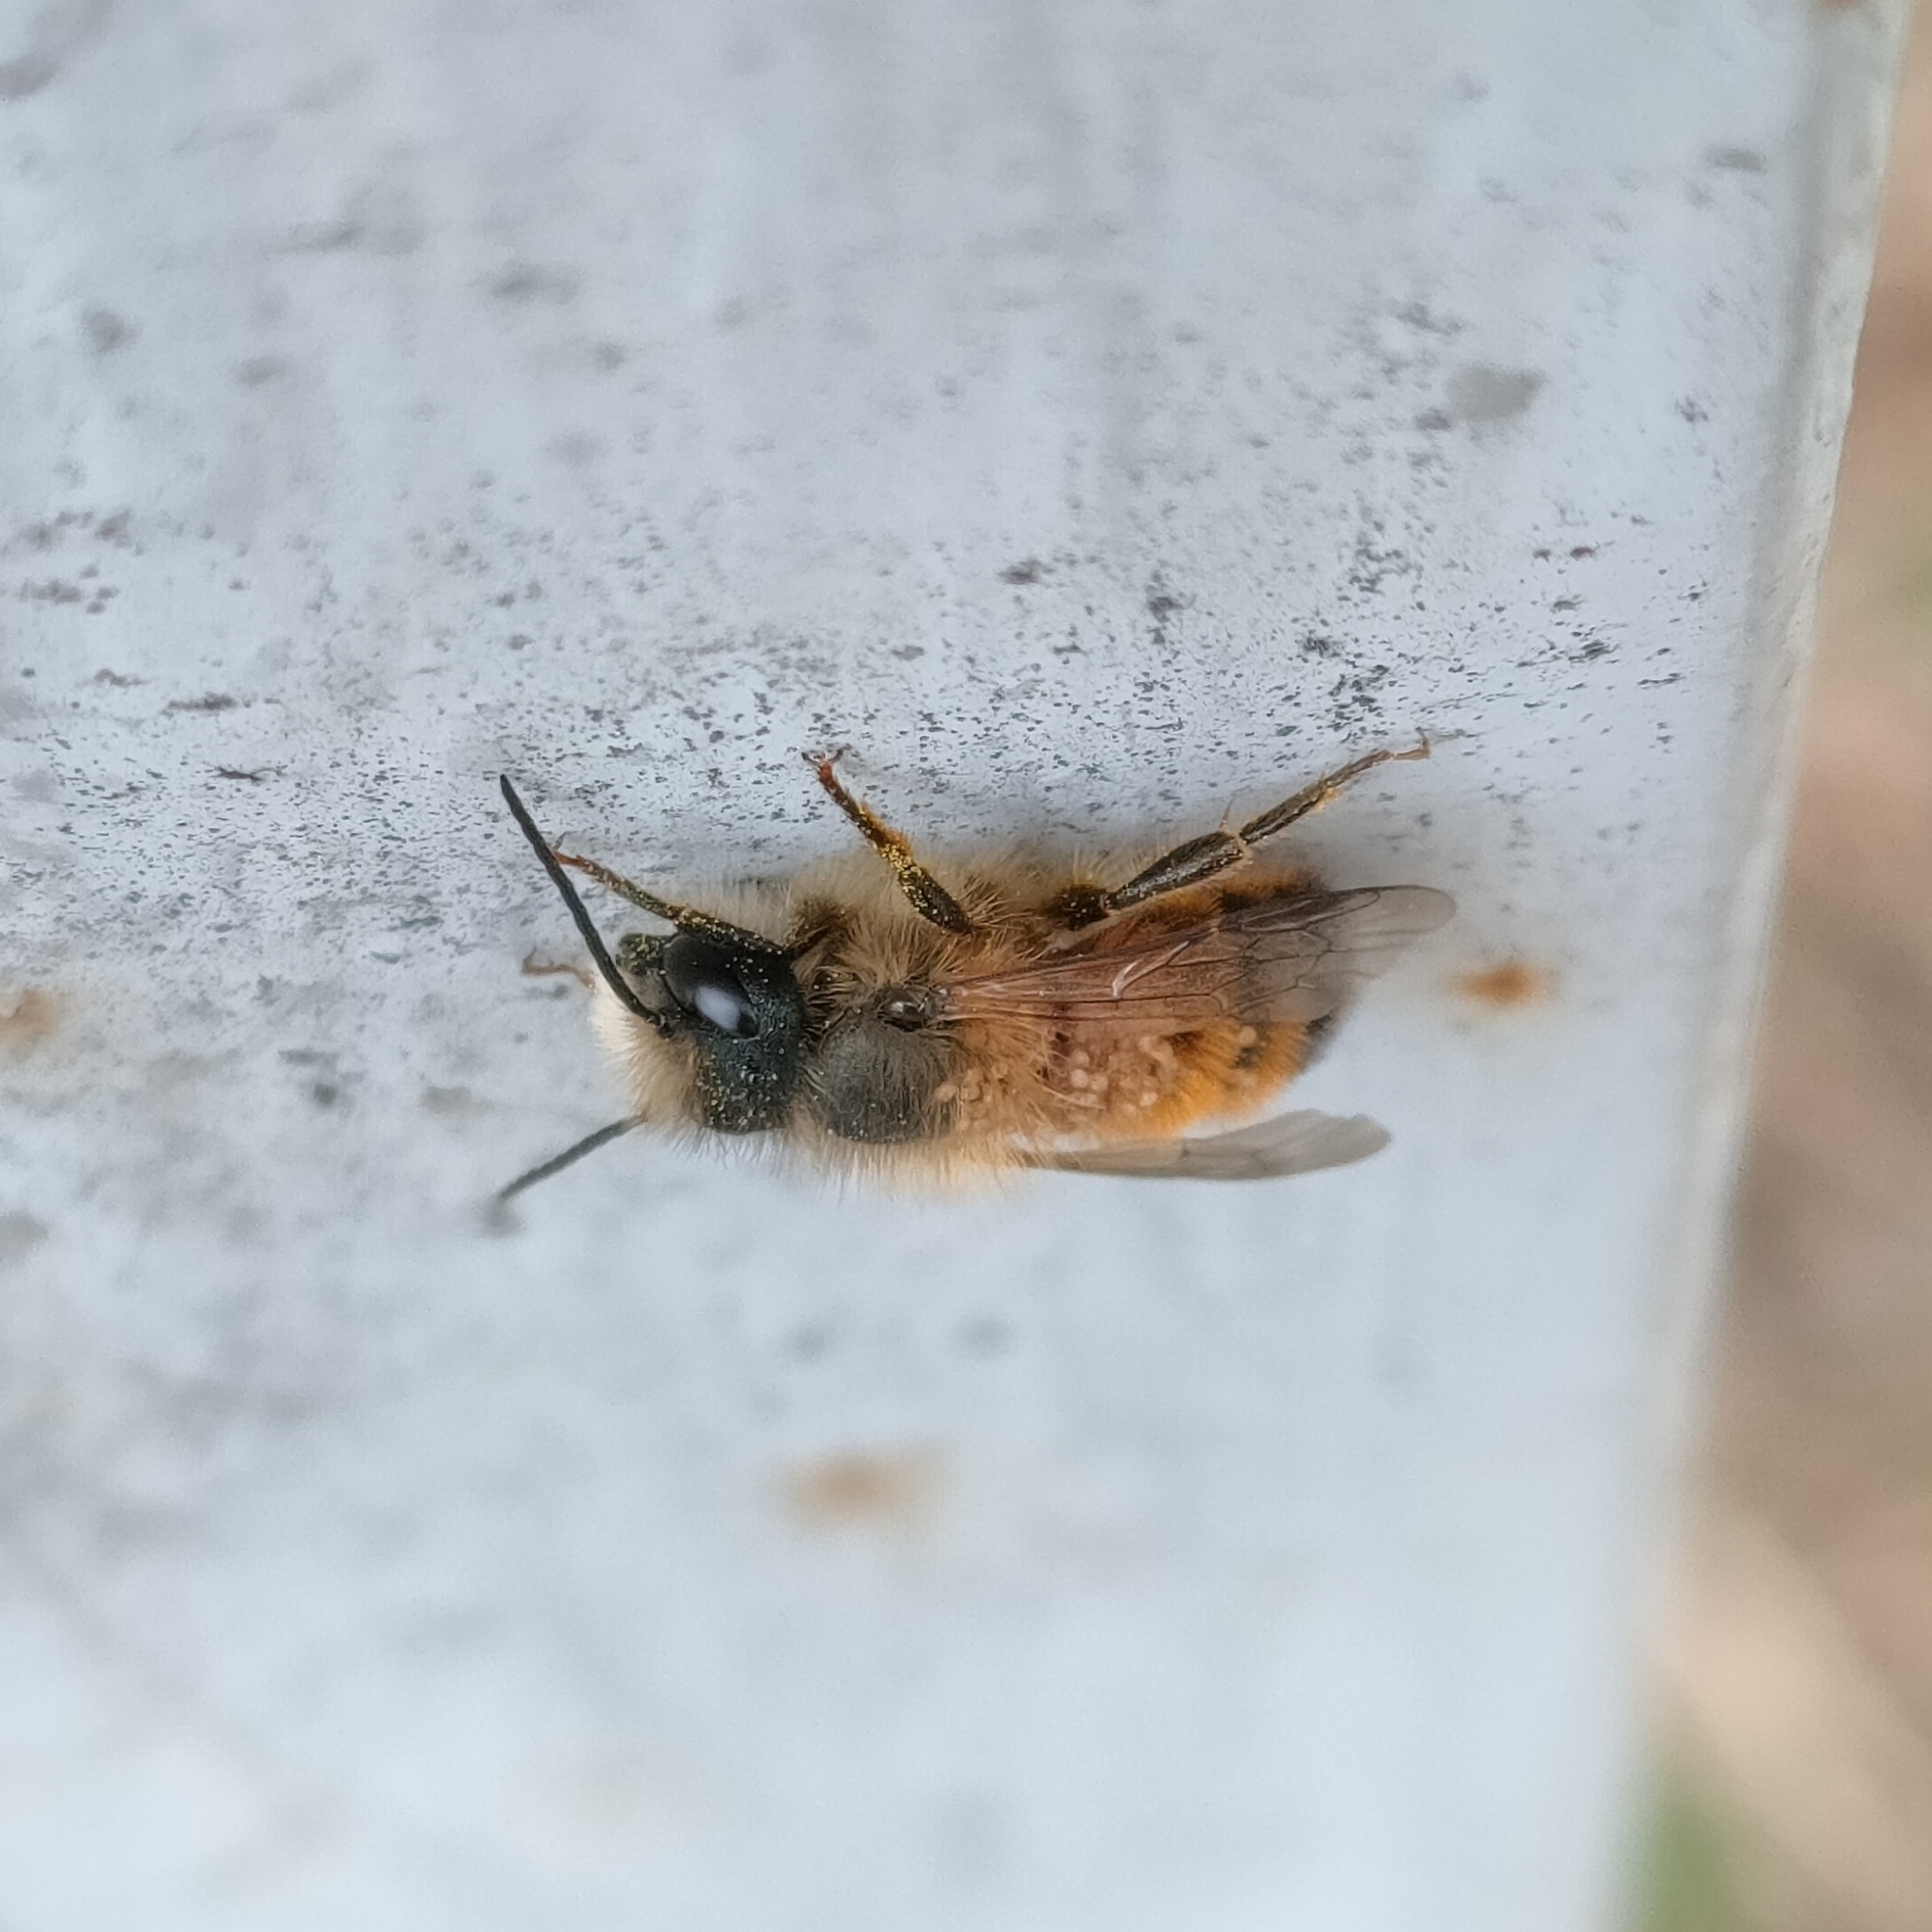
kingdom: Animalia
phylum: Arthropoda
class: Insecta
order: Hymenoptera
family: Megachilidae
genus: Osmia
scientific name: Osmia bicornis
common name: Red mason bee
